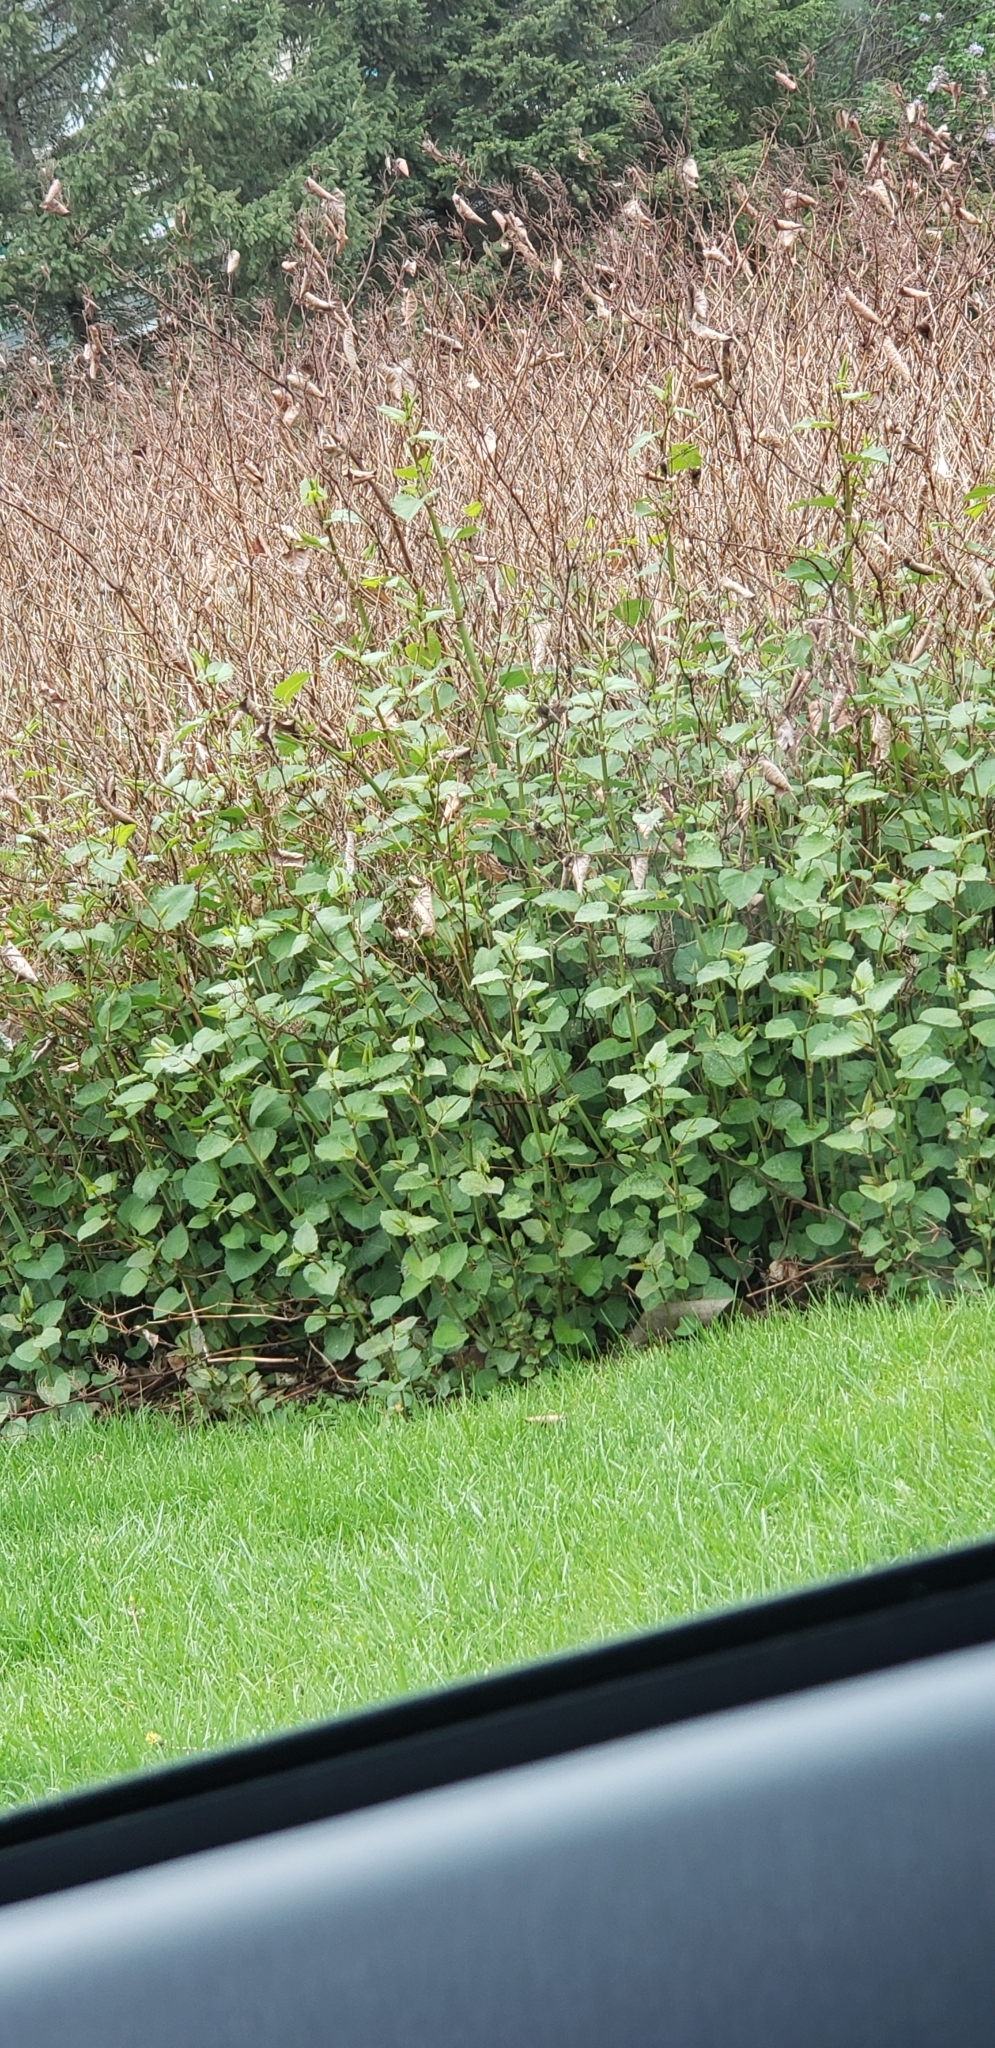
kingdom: Plantae
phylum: Tracheophyta
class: Magnoliopsida
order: Caryophyllales
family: Polygonaceae
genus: Reynoutria
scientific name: Reynoutria japonica
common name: Japanese knotweed
